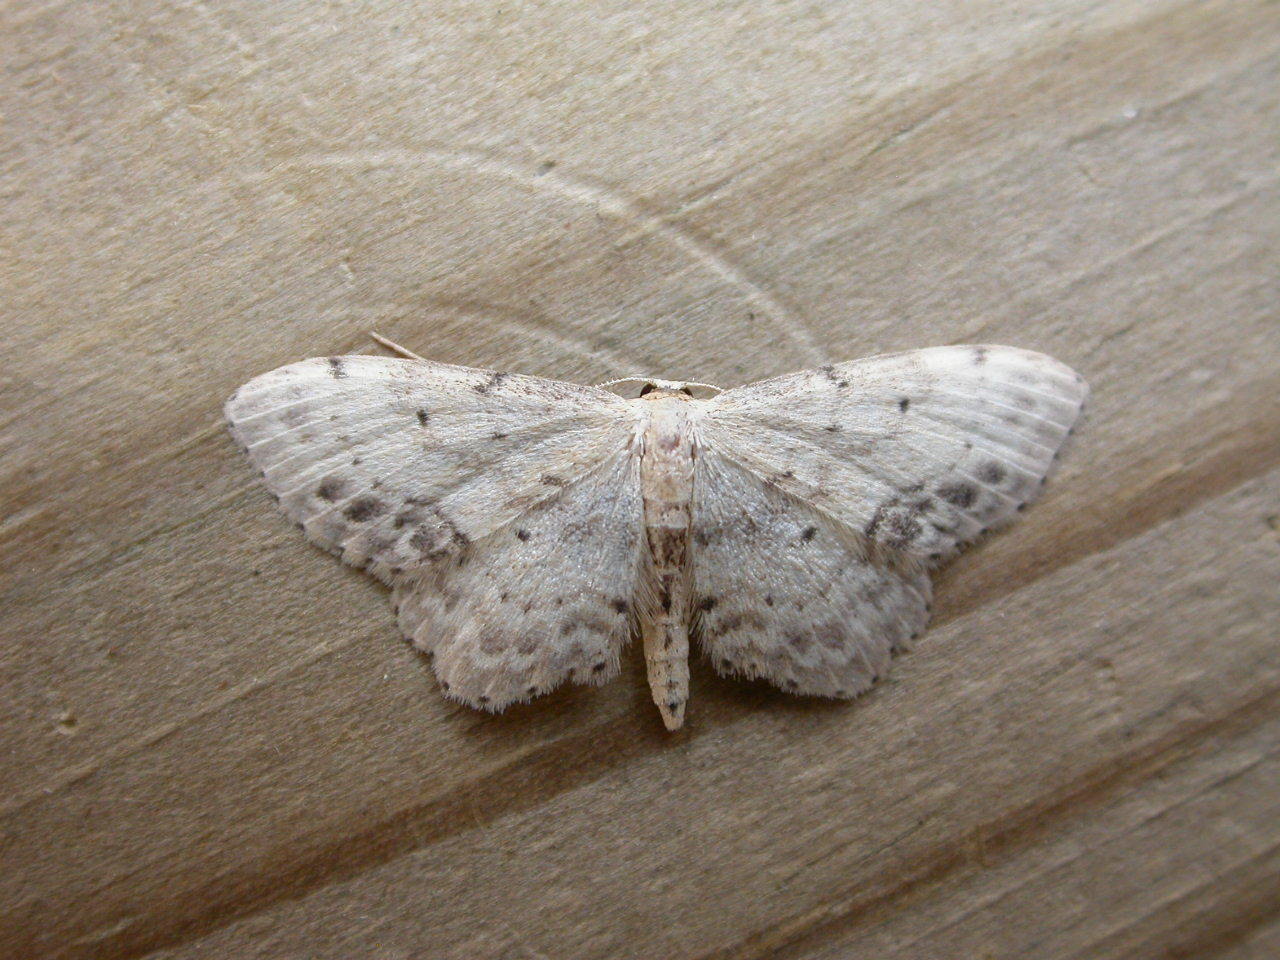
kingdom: Animalia
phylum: Arthropoda
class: Insecta
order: Lepidoptera
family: Geometridae
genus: Idaea
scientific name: Idaea dimidiata
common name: Single-dotted wave
